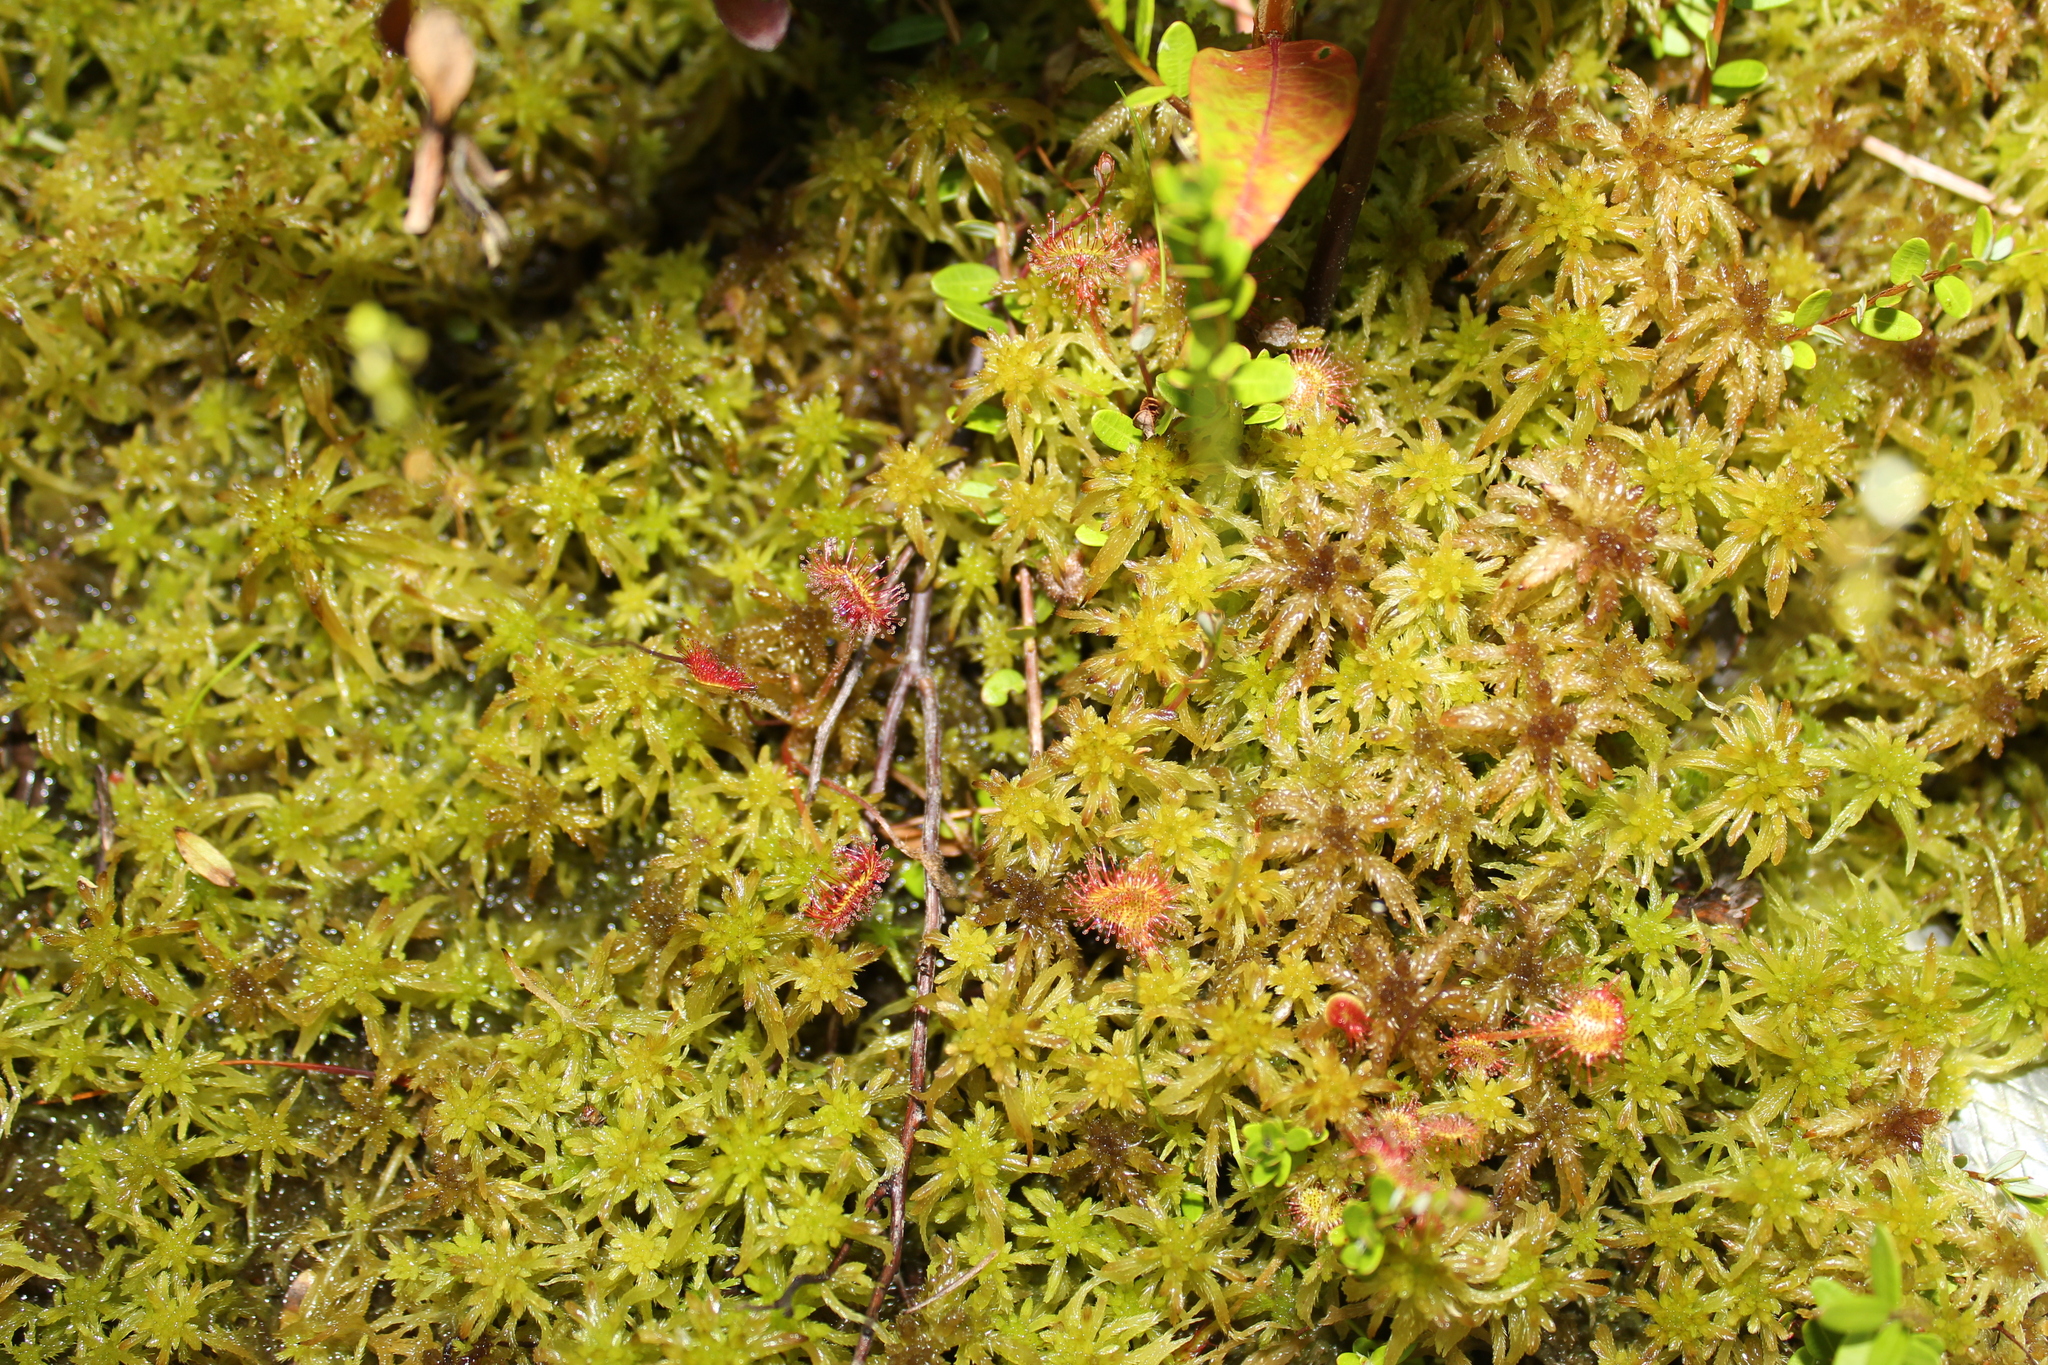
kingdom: Plantae
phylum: Tracheophyta
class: Magnoliopsida
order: Caryophyllales
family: Droseraceae
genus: Drosera
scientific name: Drosera rotundifolia
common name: Round-leaved sundew
